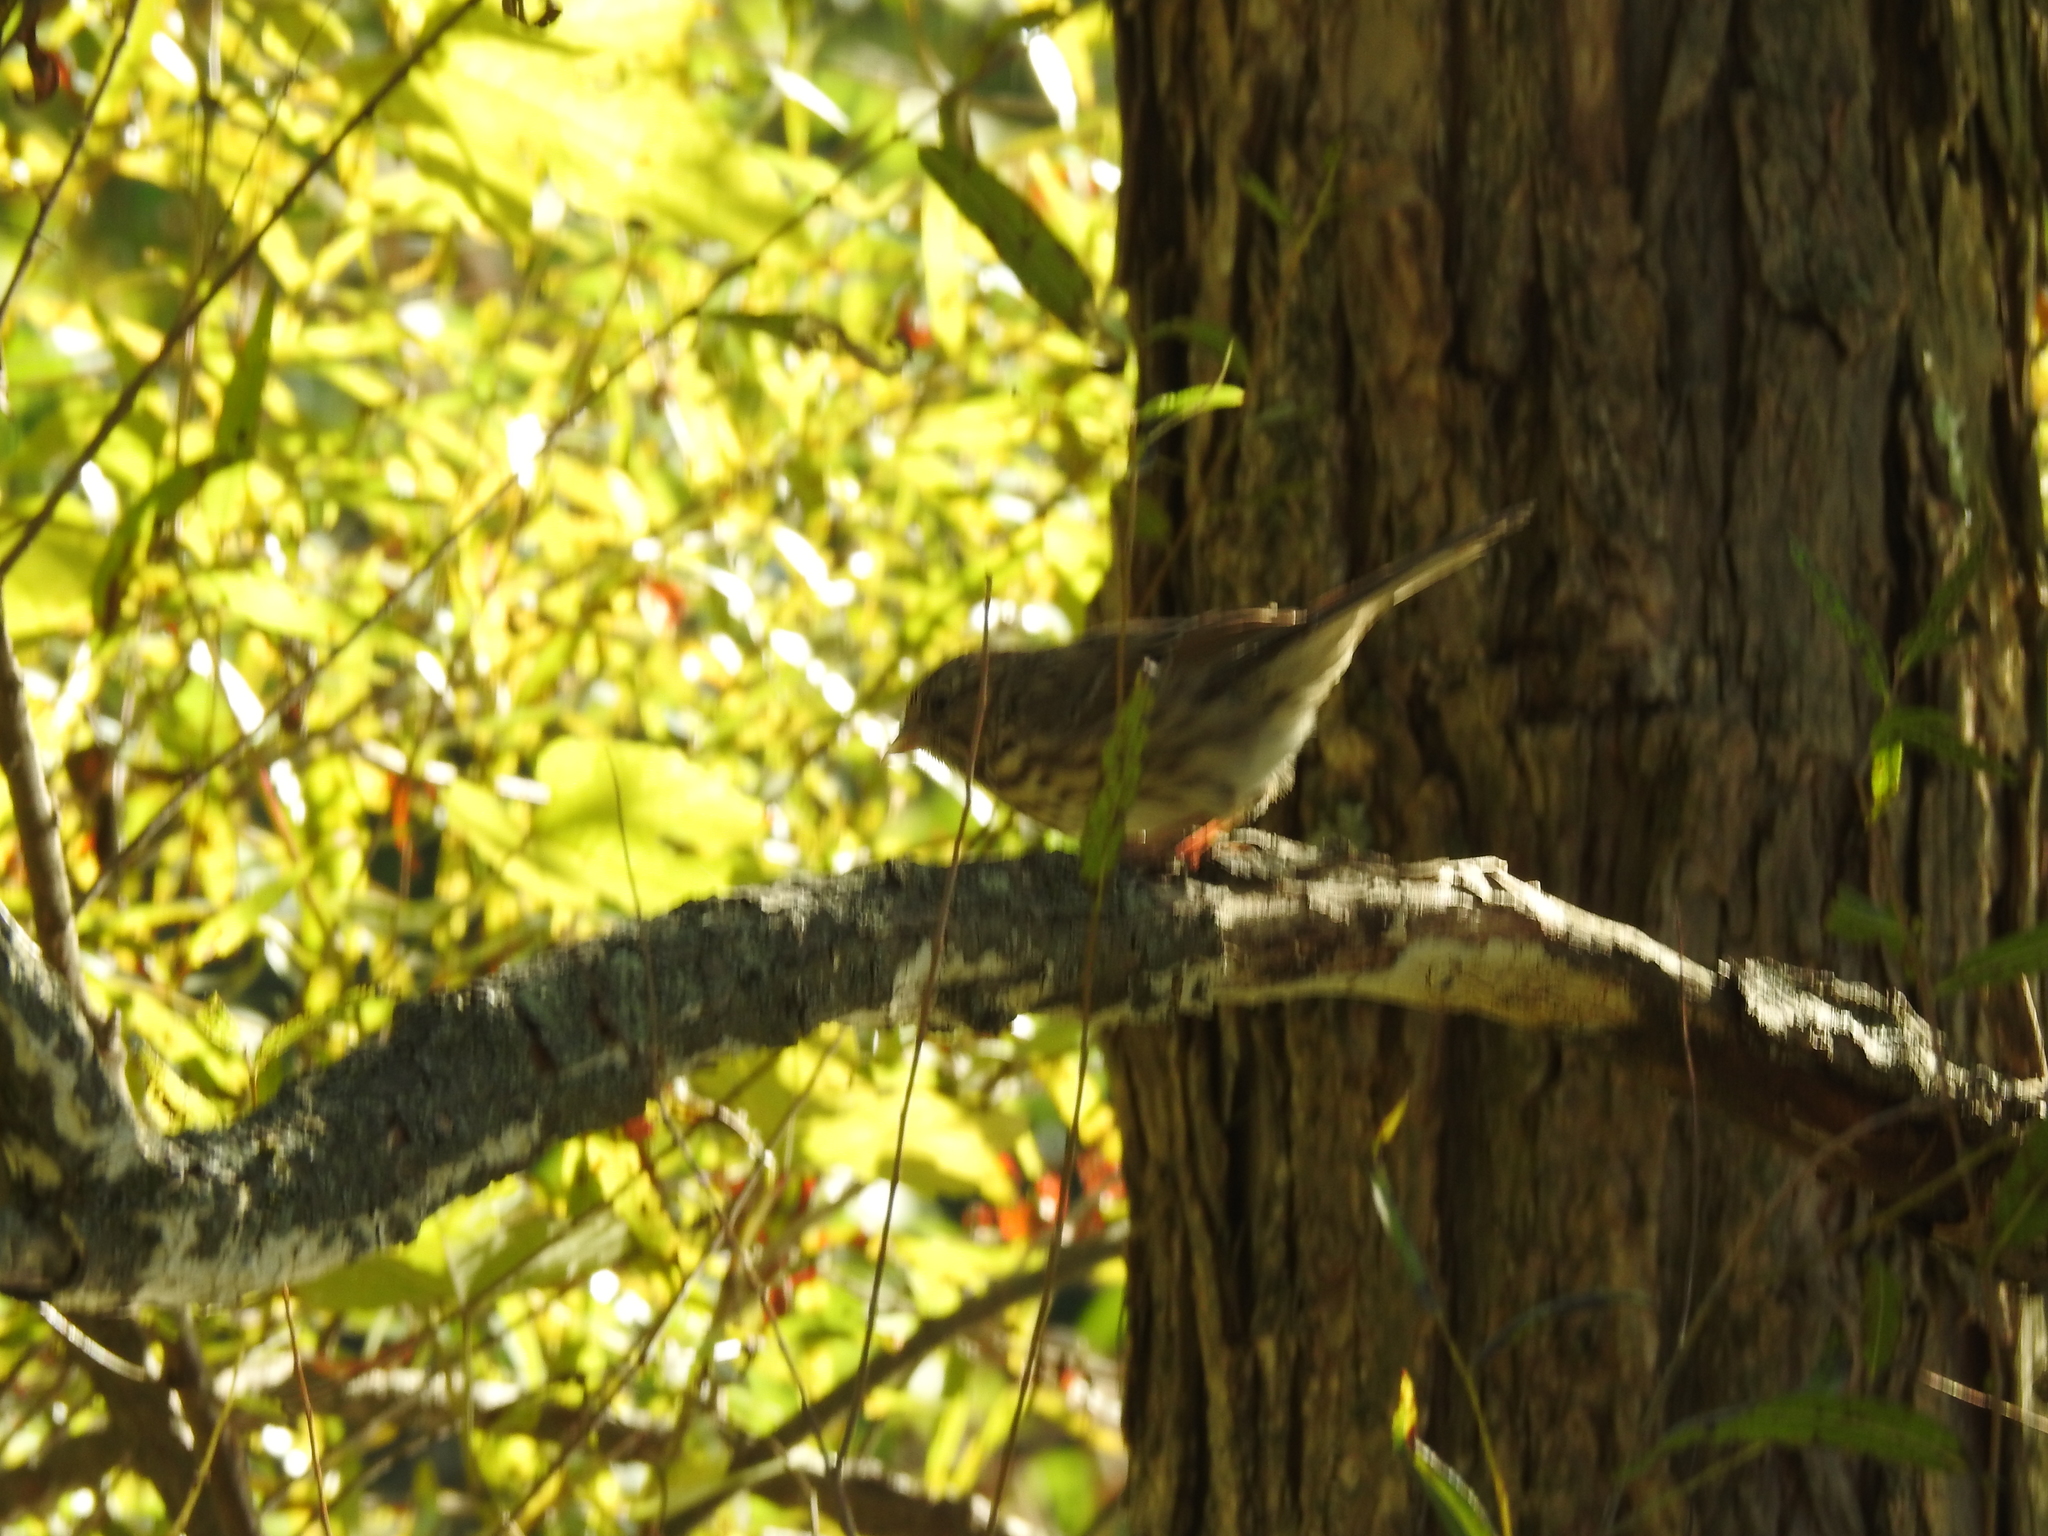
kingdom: Animalia
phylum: Chordata
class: Aves
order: Passeriformes
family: Passerellidae
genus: Passerella
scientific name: Passerella iliaca
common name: Fox sparrow
